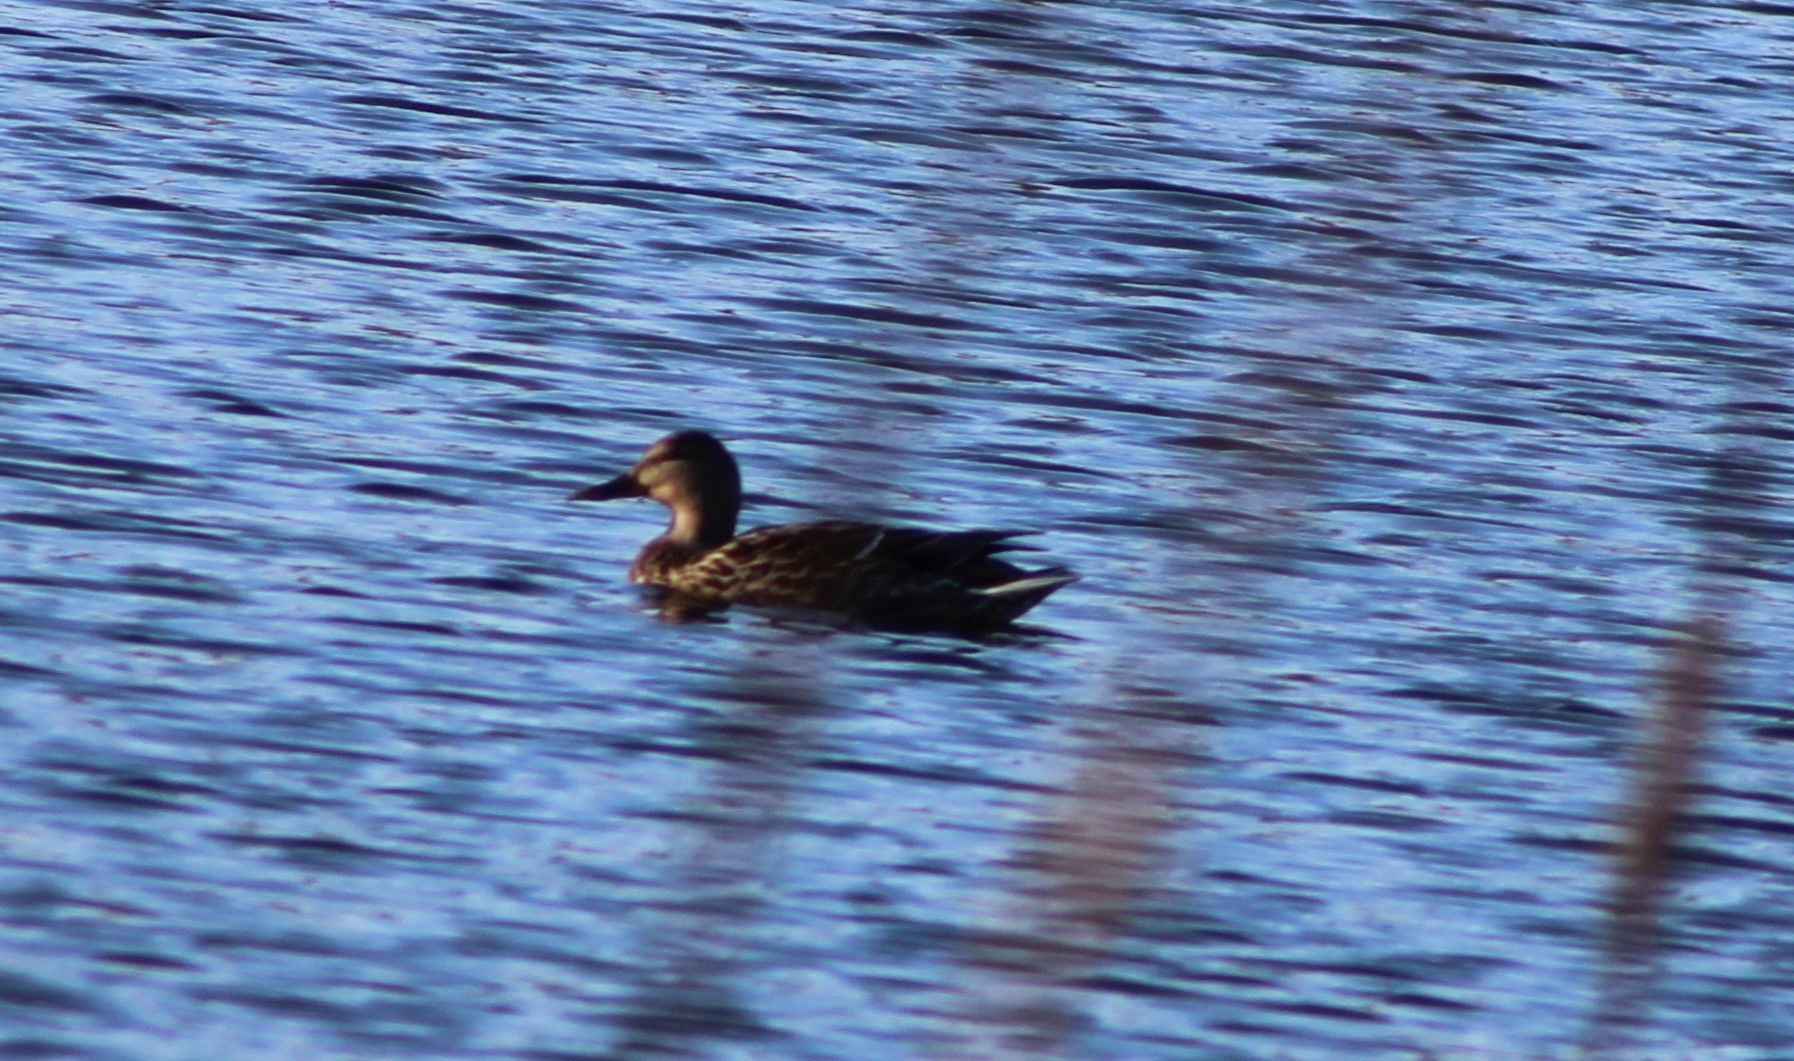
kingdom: Animalia
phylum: Chordata
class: Aves
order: Anseriformes
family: Anatidae
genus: Anas
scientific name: Anas platyrhynchos
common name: Mallard
